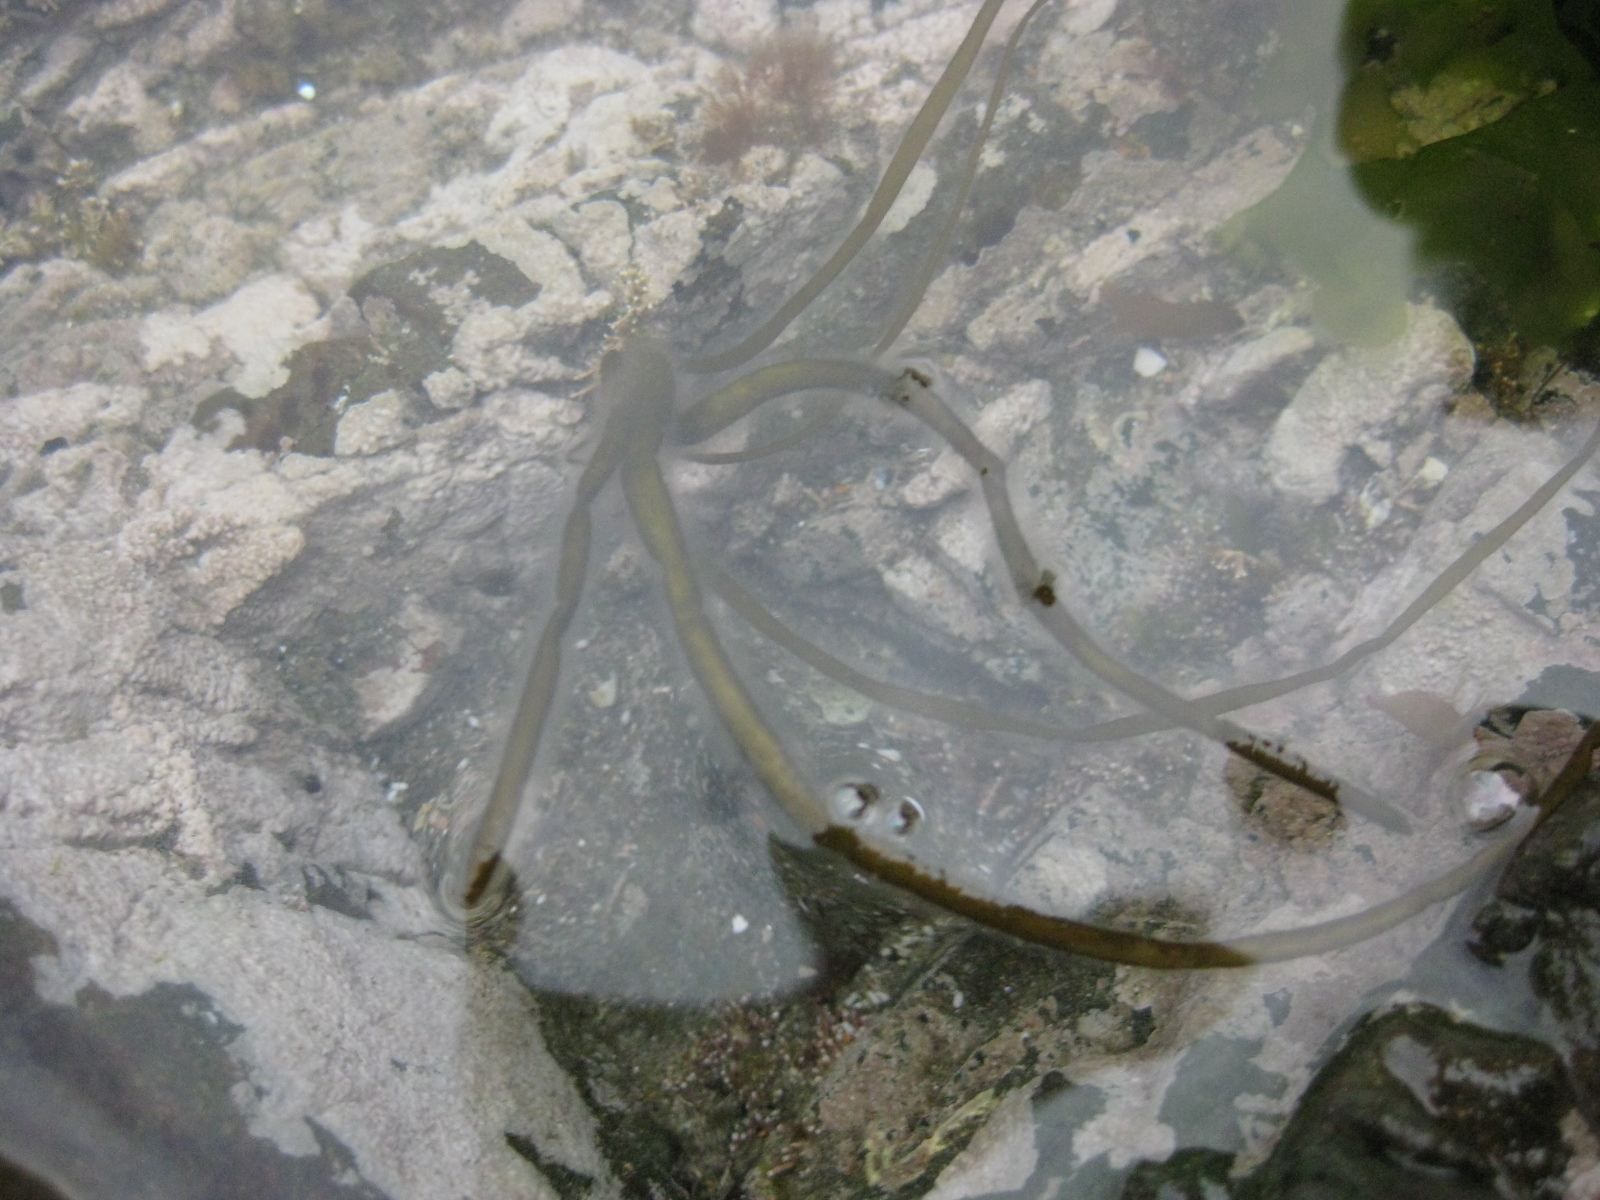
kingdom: Chromista
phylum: Ochrophyta
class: Phaeophyceae
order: Scytosiphonales
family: Scytosiphonaceae
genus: Scytosiphon
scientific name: Scytosiphon lomentaria
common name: Beanweed
